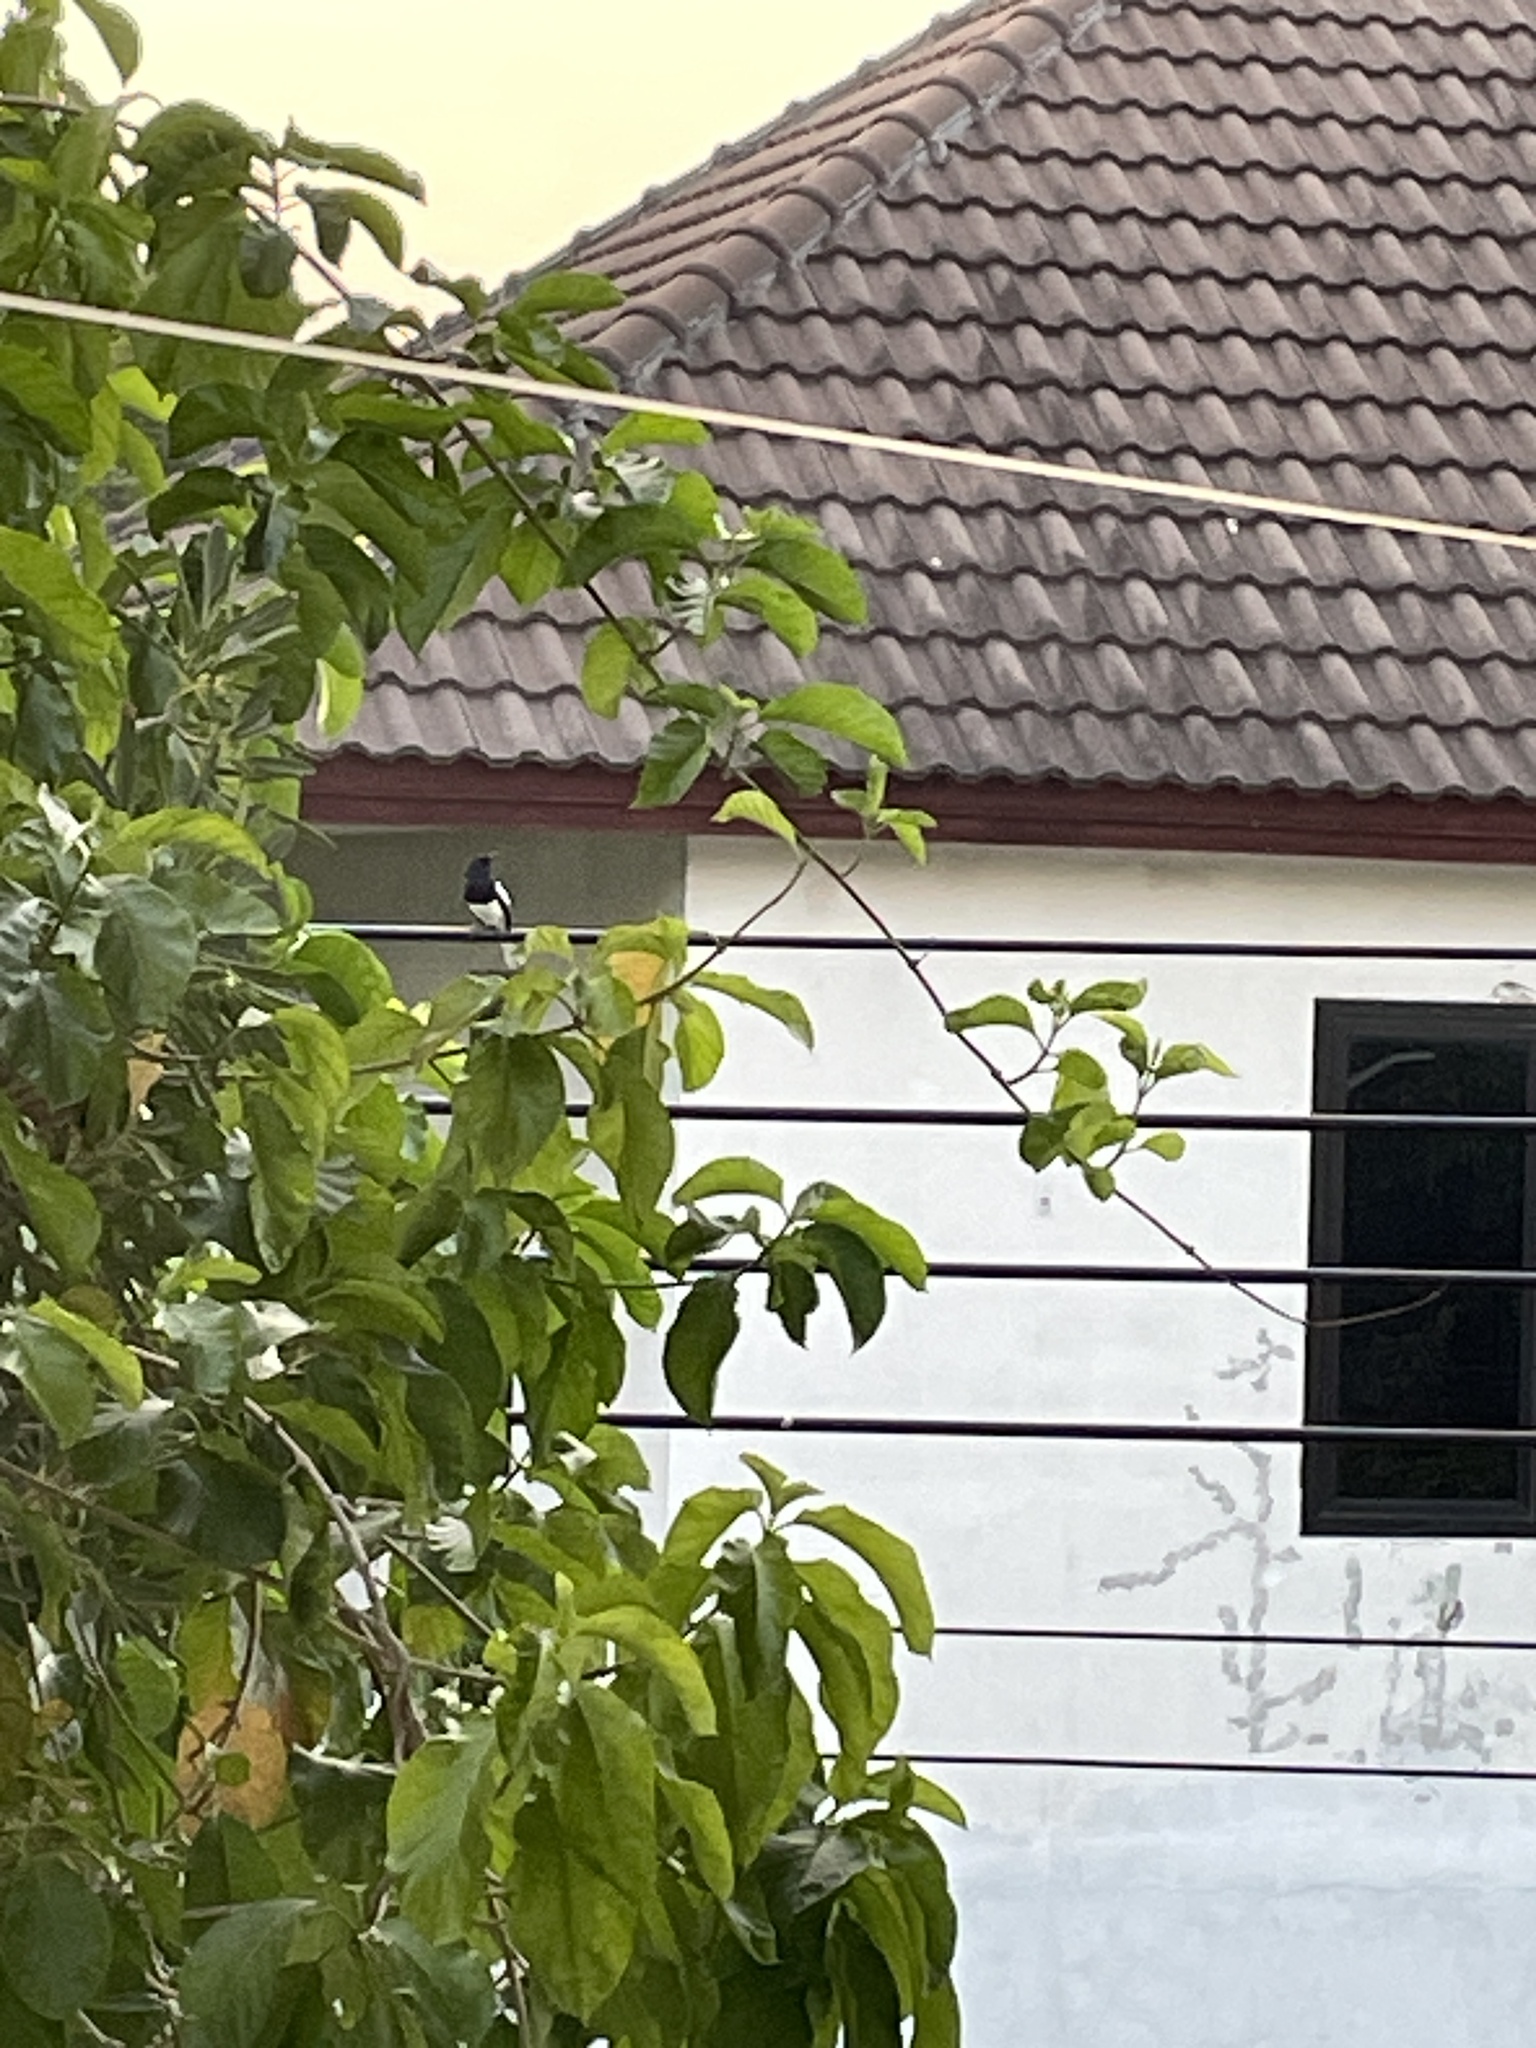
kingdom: Animalia
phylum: Chordata
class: Aves
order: Passeriformes
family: Muscicapidae
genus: Copsychus
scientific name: Copsychus saularis
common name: Oriental magpie-robin
